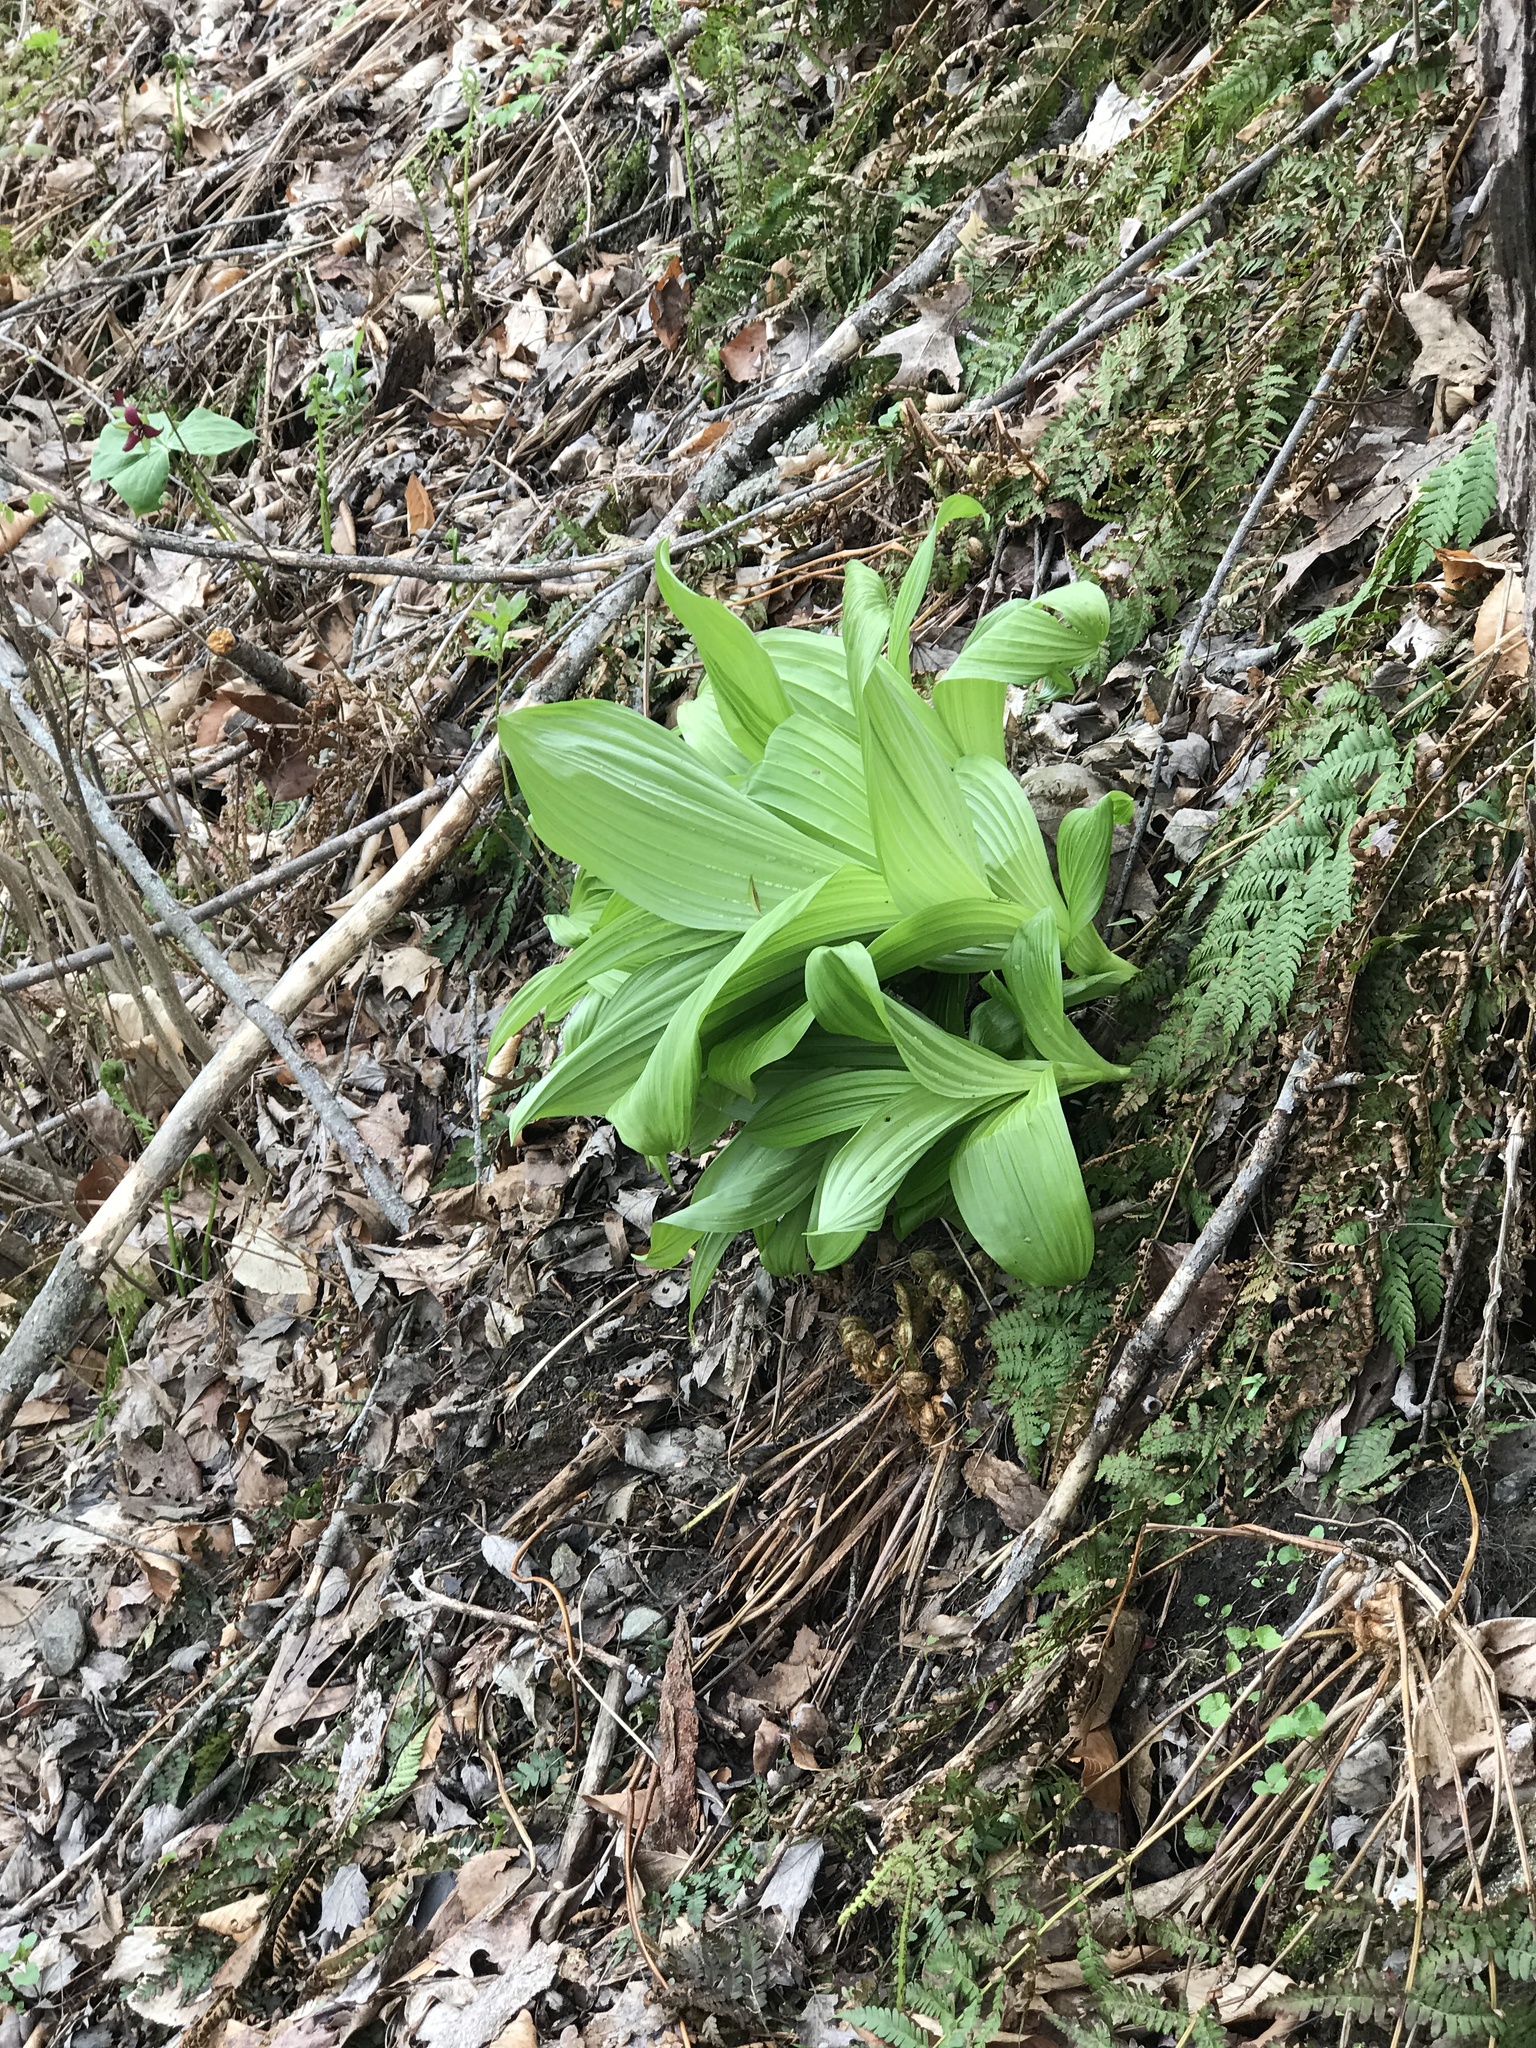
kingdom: Plantae
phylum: Tracheophyta
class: Liliopsida
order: Liliales
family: Melanthiaceae
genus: Veratrum
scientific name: Veratrum viride
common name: American false hellebore
